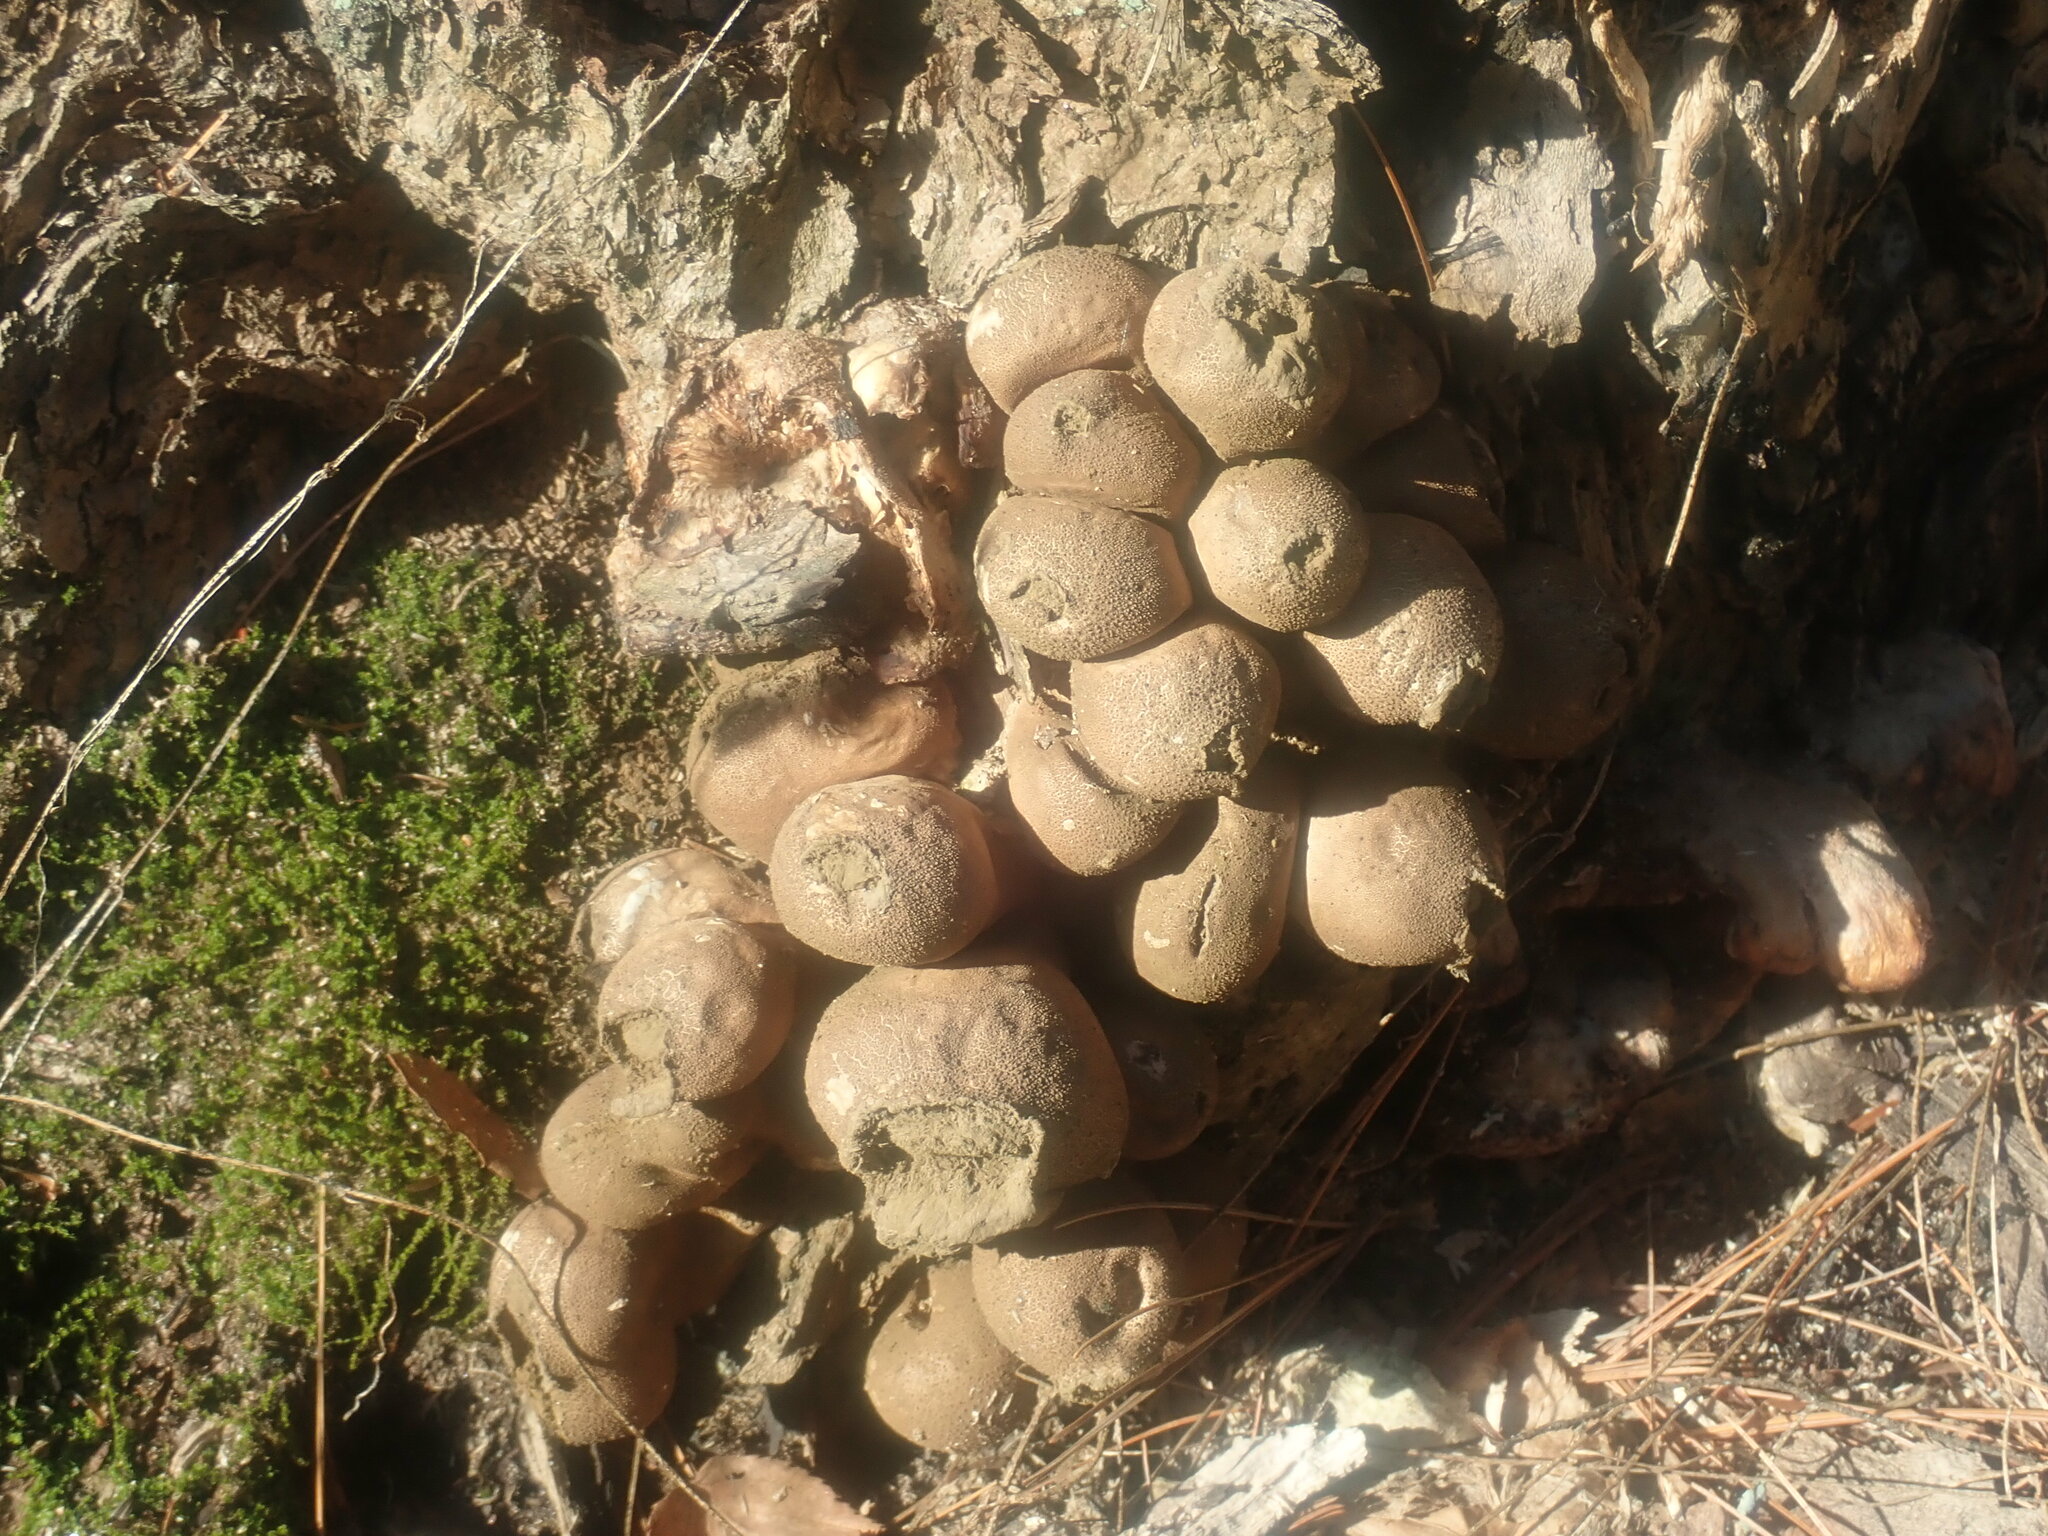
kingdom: Fungi
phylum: Basidiomycota
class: Agaricomycetes
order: Agaricales
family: Lycoperdaceae
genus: Apioperdon
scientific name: Apioperdon pyriforme
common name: Pear-shaped puffball
